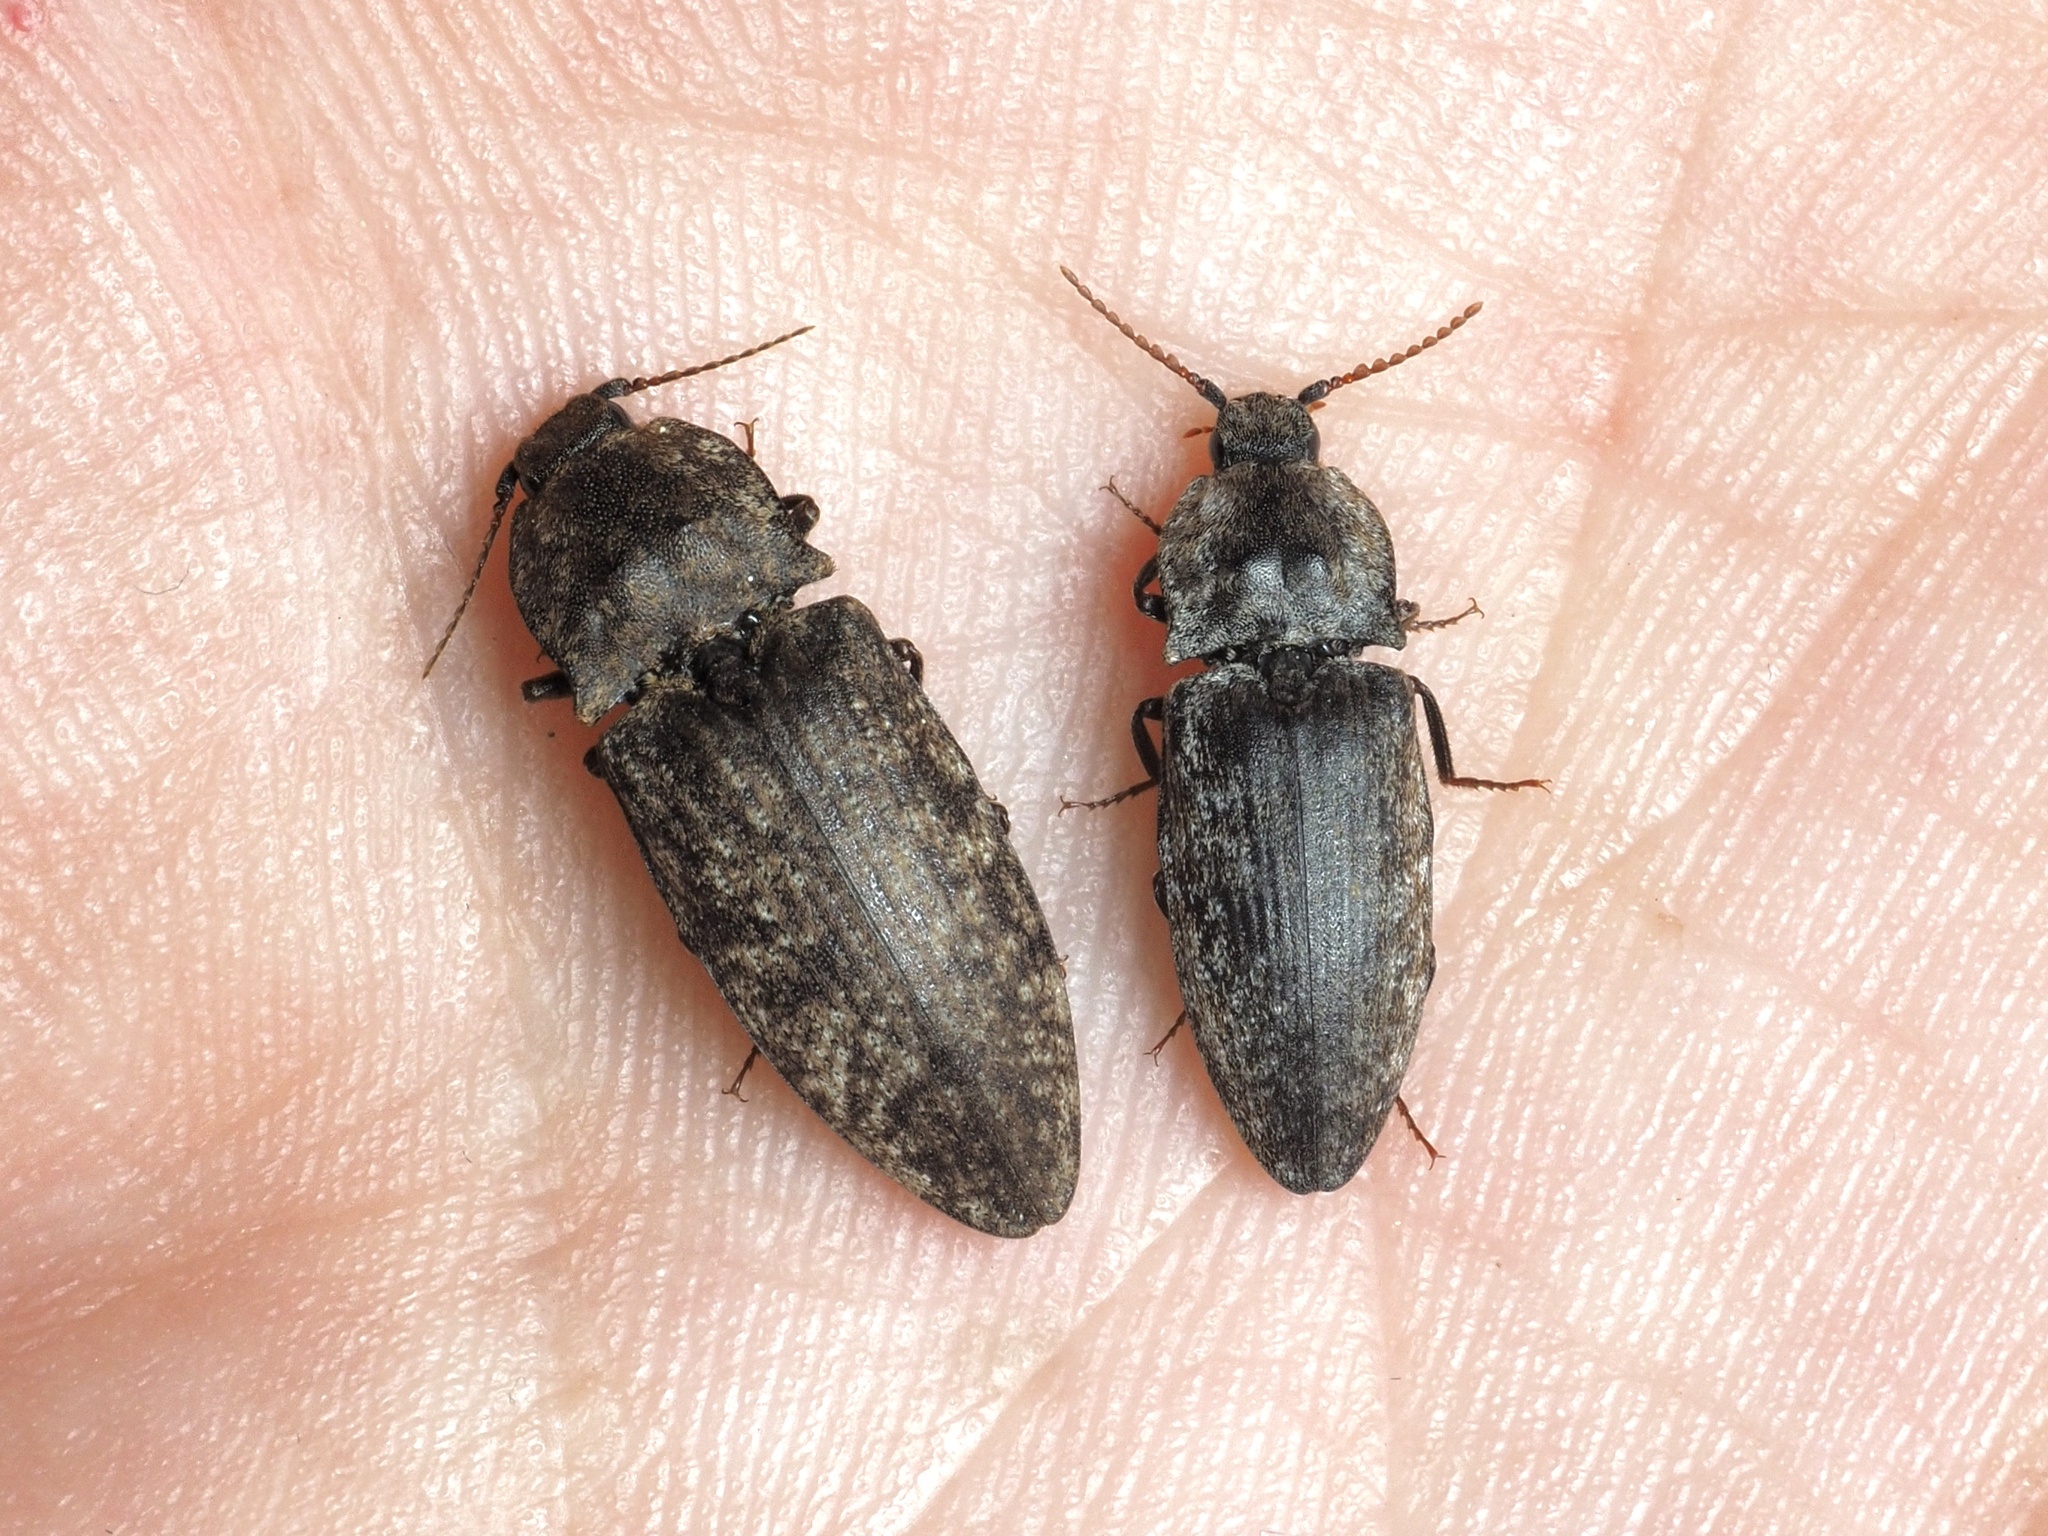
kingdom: Animalia
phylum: Arthropoda
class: Insecta
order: Coleoptera
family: Elateridae
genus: Agrypnus
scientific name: Agrypnus murinus
